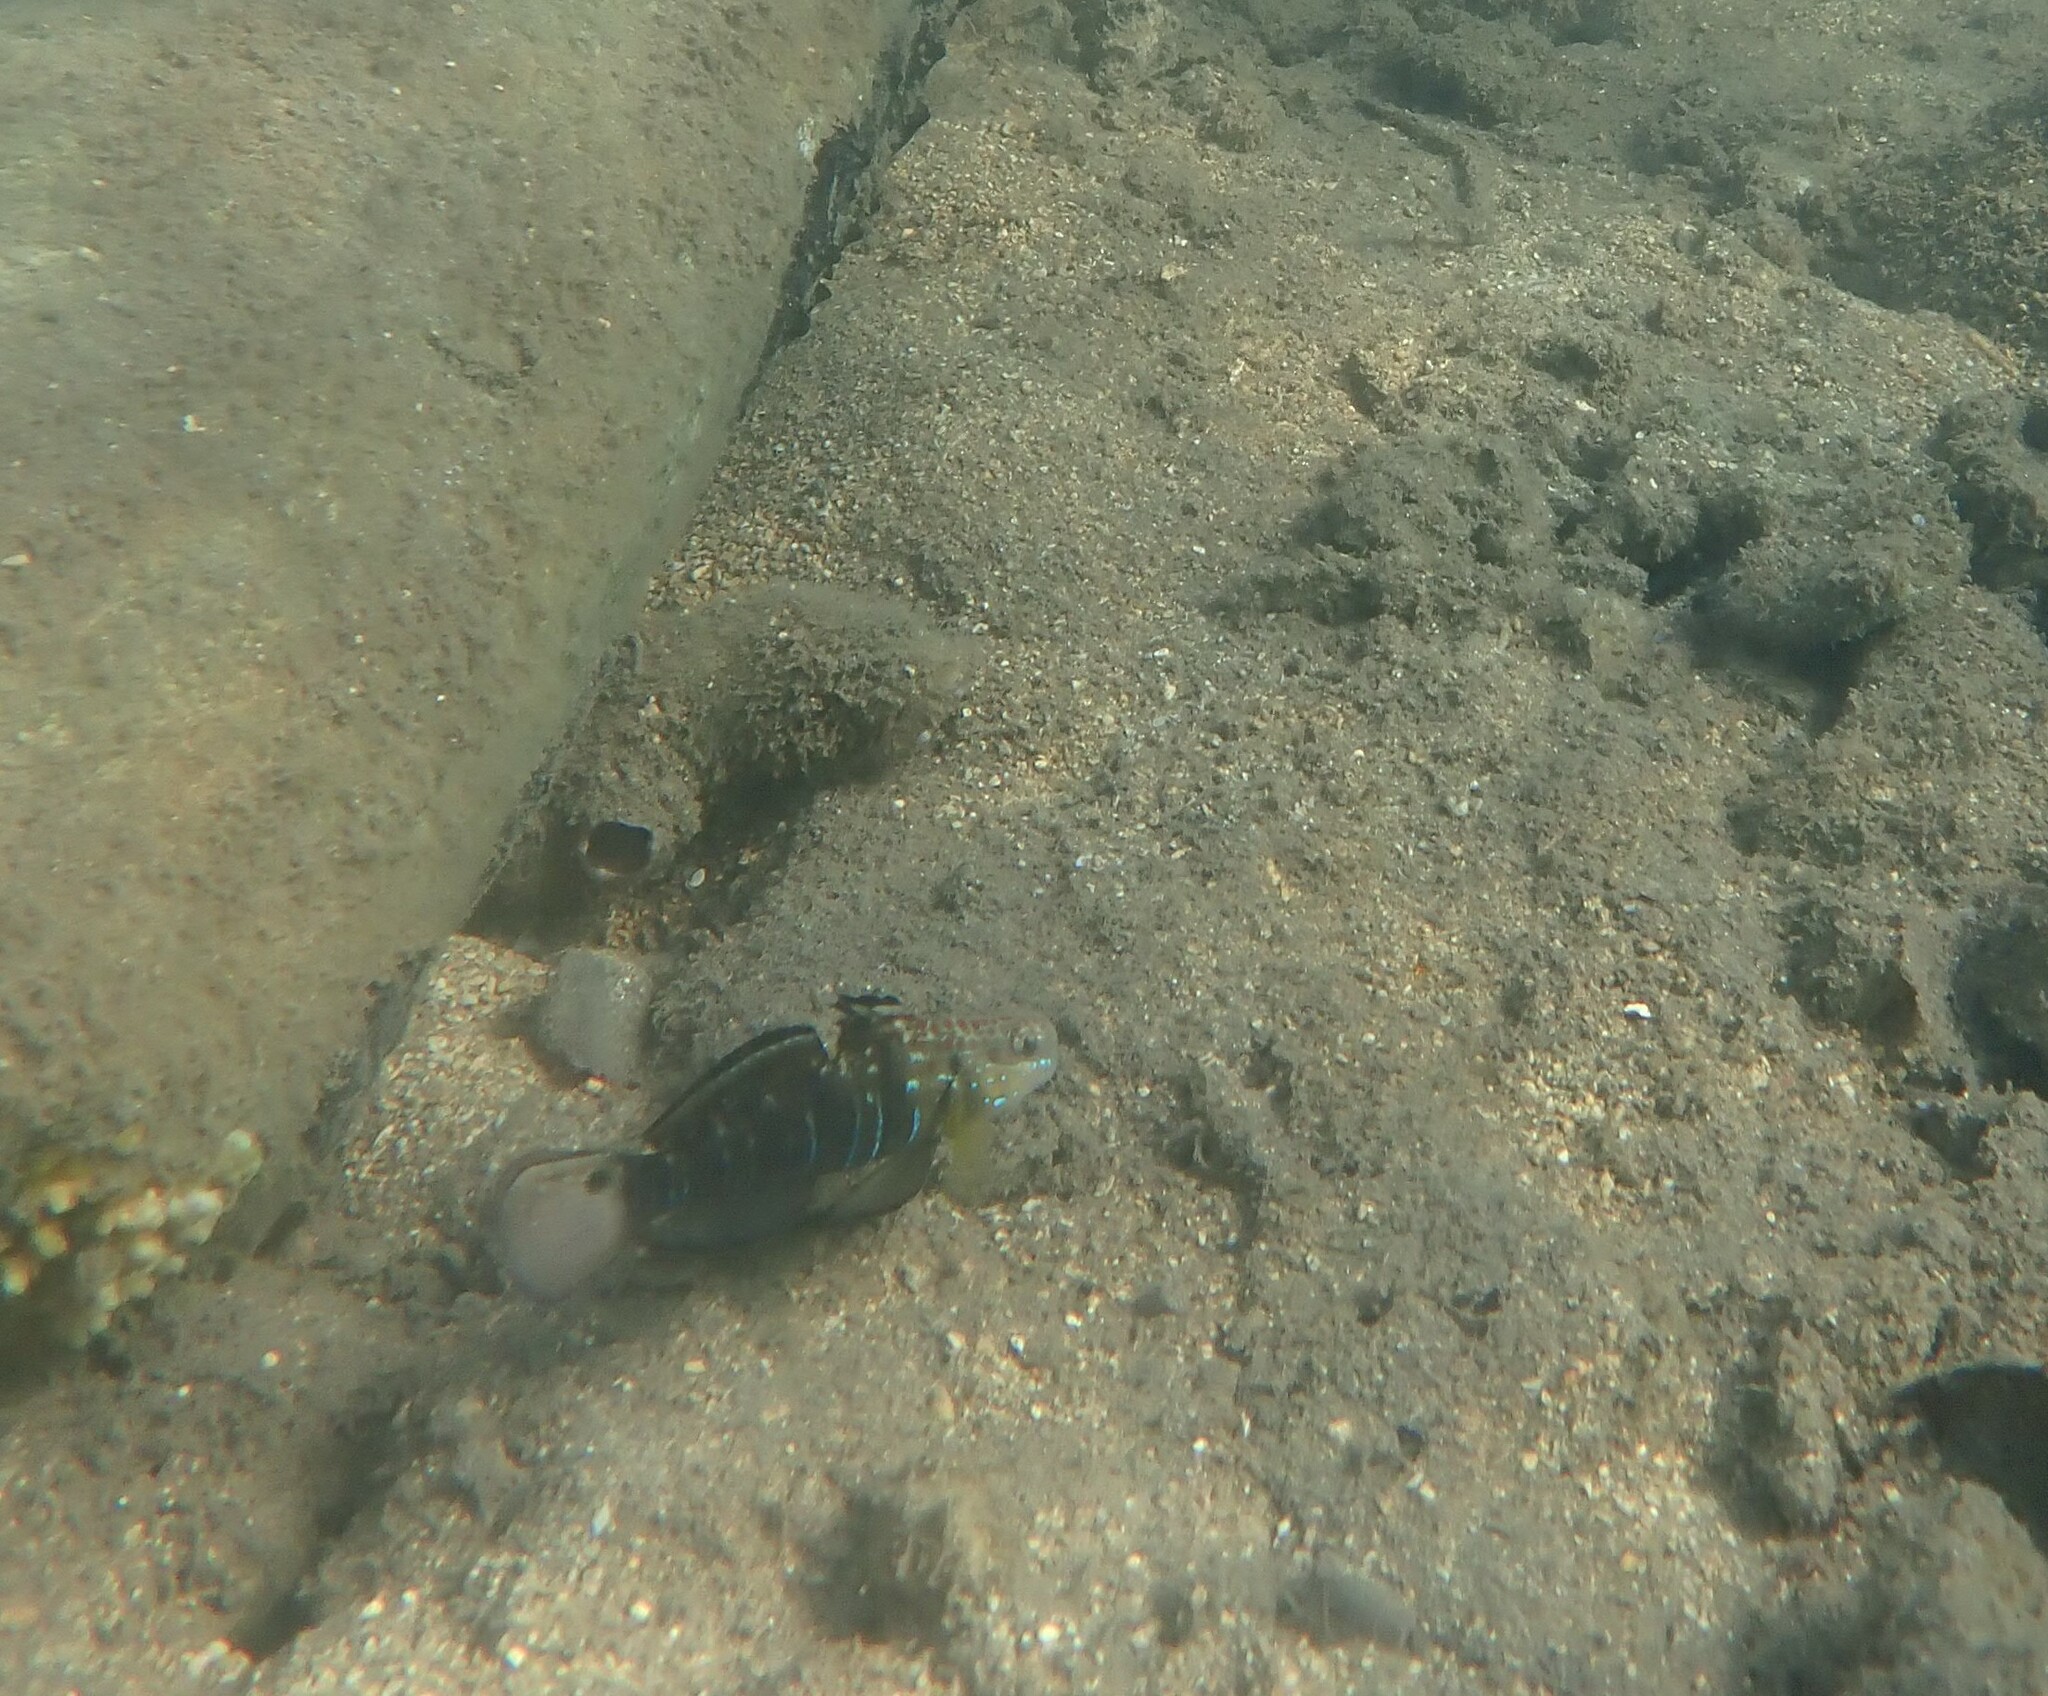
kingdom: Animalia
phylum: Chordata
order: Perciformes
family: Gobiidae
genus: Amblygobius
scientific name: Amblygobius phalaena
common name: Banded goby
